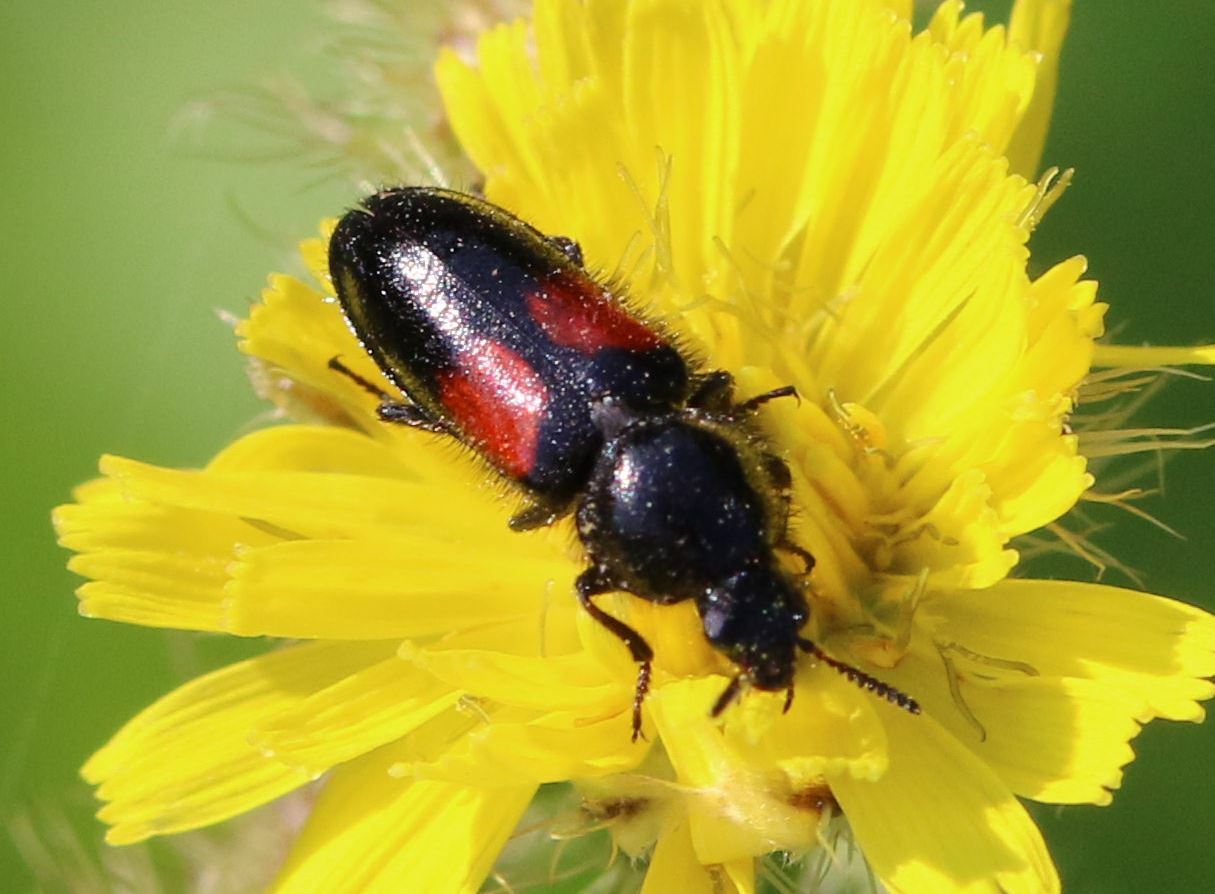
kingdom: Animalia
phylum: Arthropoda
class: Insecta
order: Coleoptera
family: Melyridae
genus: Divales
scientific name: Divales bipustulatus
